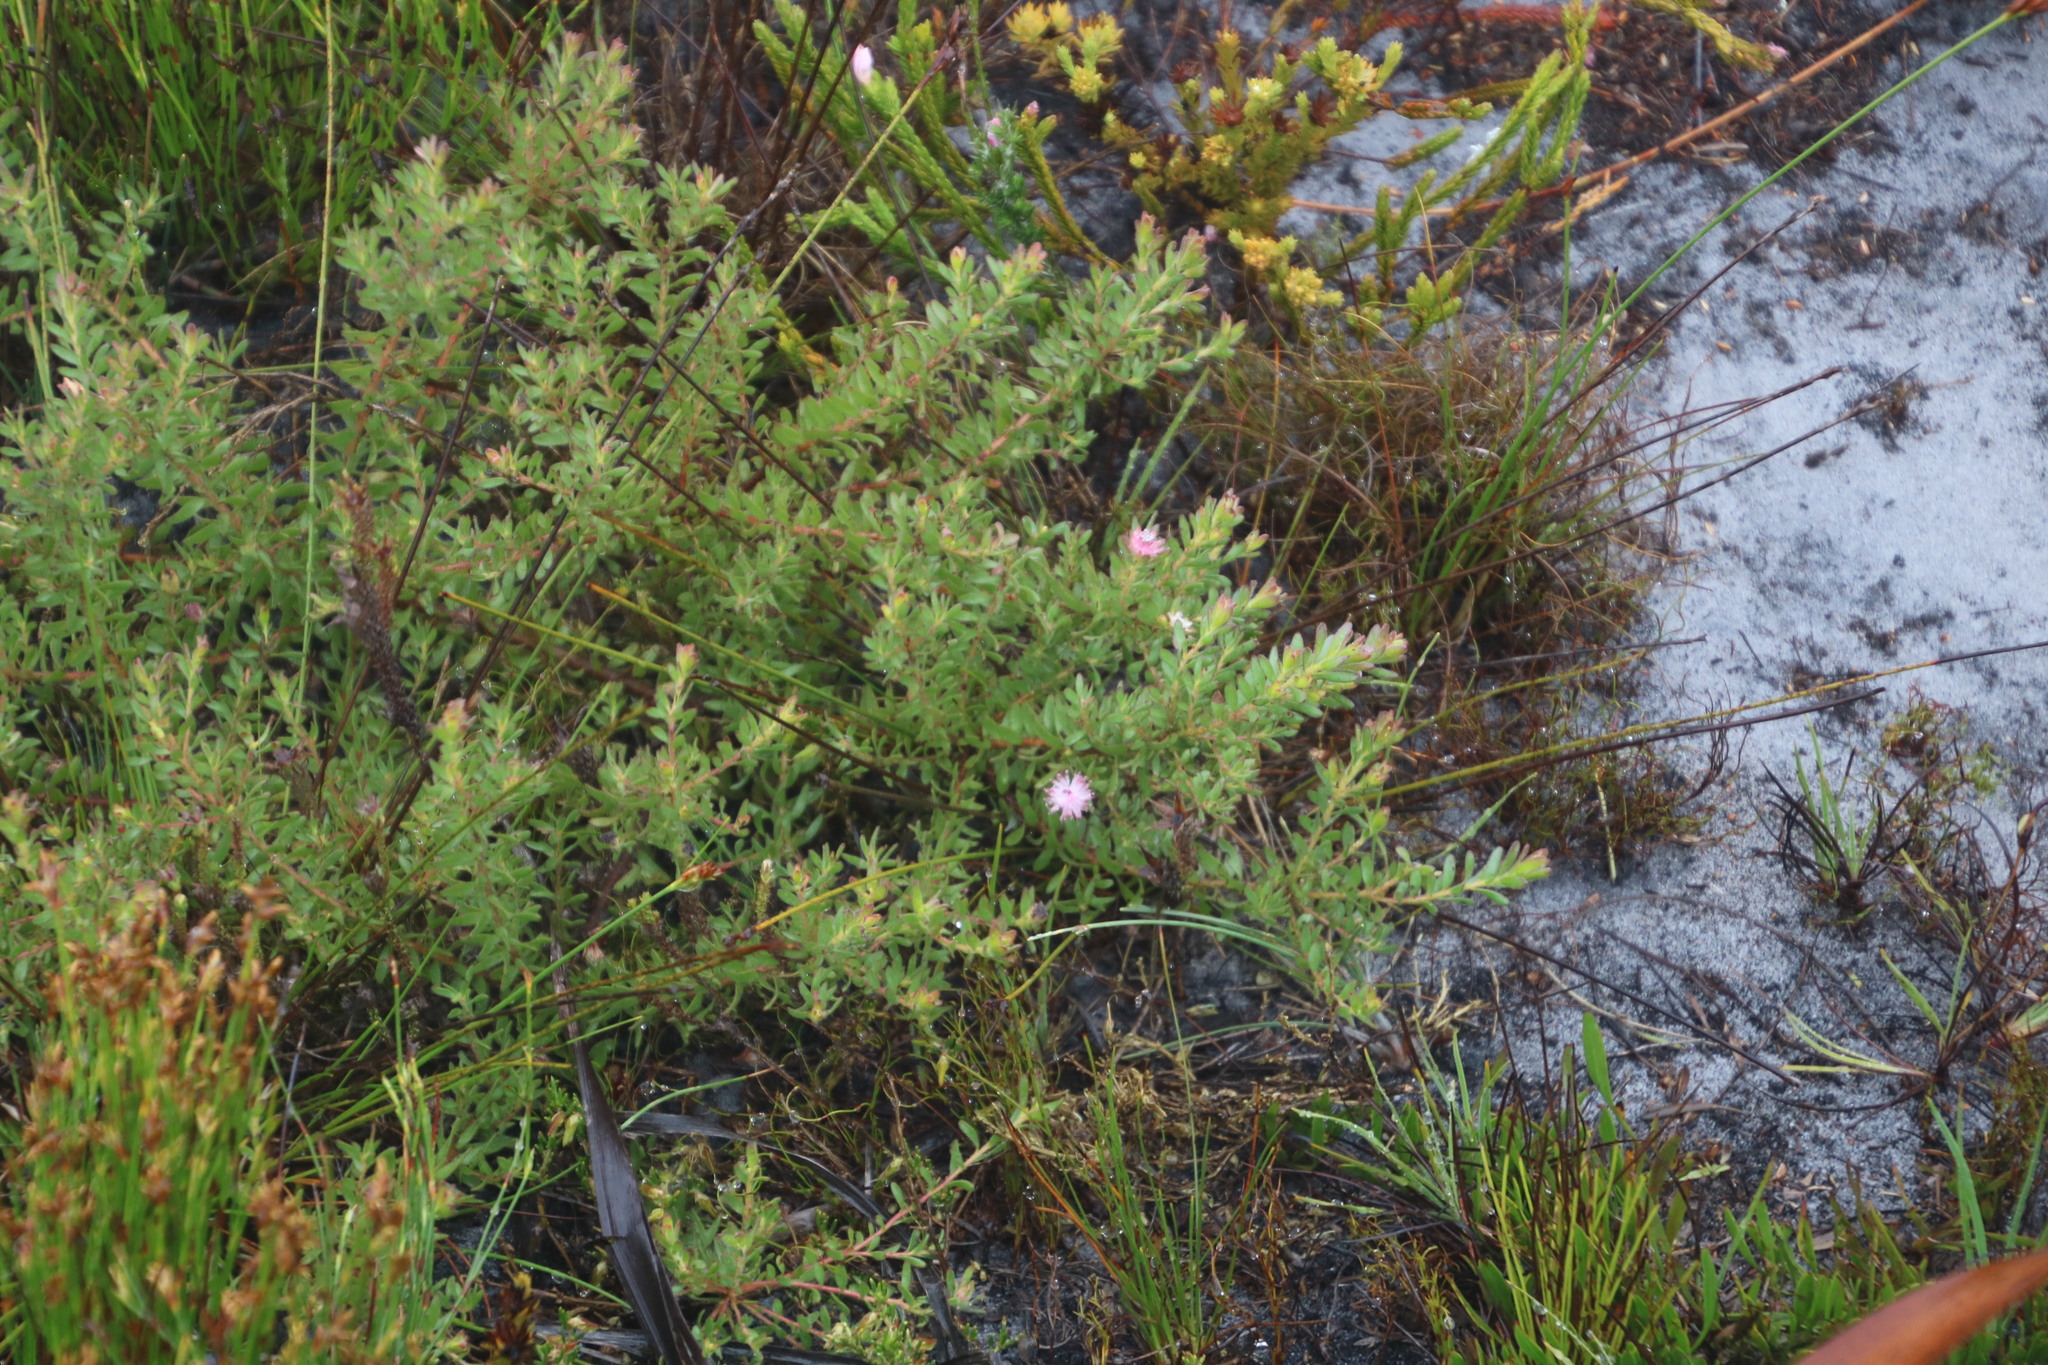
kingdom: Plantae
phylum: Tracheophyta
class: Magnoliopsida
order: Proteales
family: Proteaceae
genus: Diastella
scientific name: Diastella divaricata
